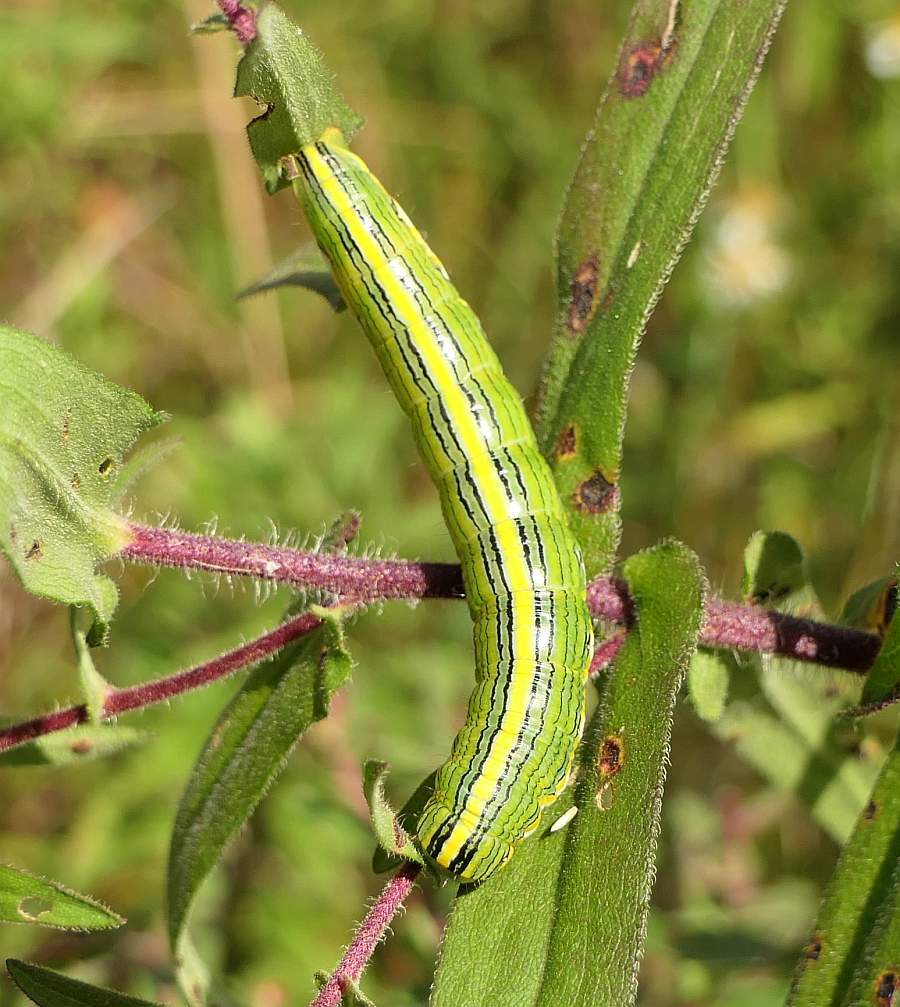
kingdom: Animalia
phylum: Arthropoda
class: Insecta
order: Lepidoptera
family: Noctuidae
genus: Cucullia
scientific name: Cucullia asteroides
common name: Asteroid moth
